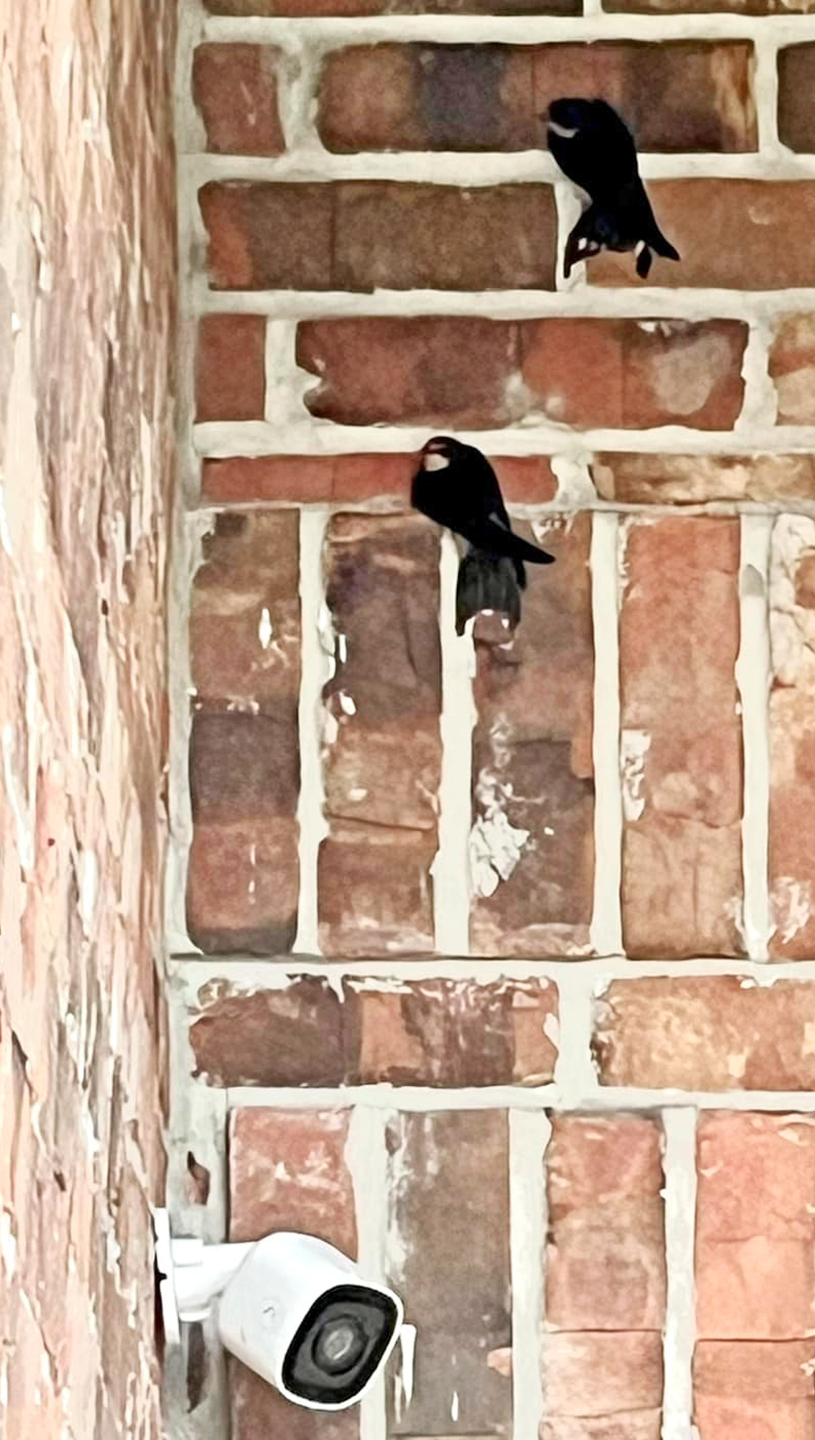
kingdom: Animalia
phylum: Chordata
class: Aves
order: Passeriformes
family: Hirundinidae
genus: Hirundo
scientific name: Hirundo rustica
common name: Barn swallow
